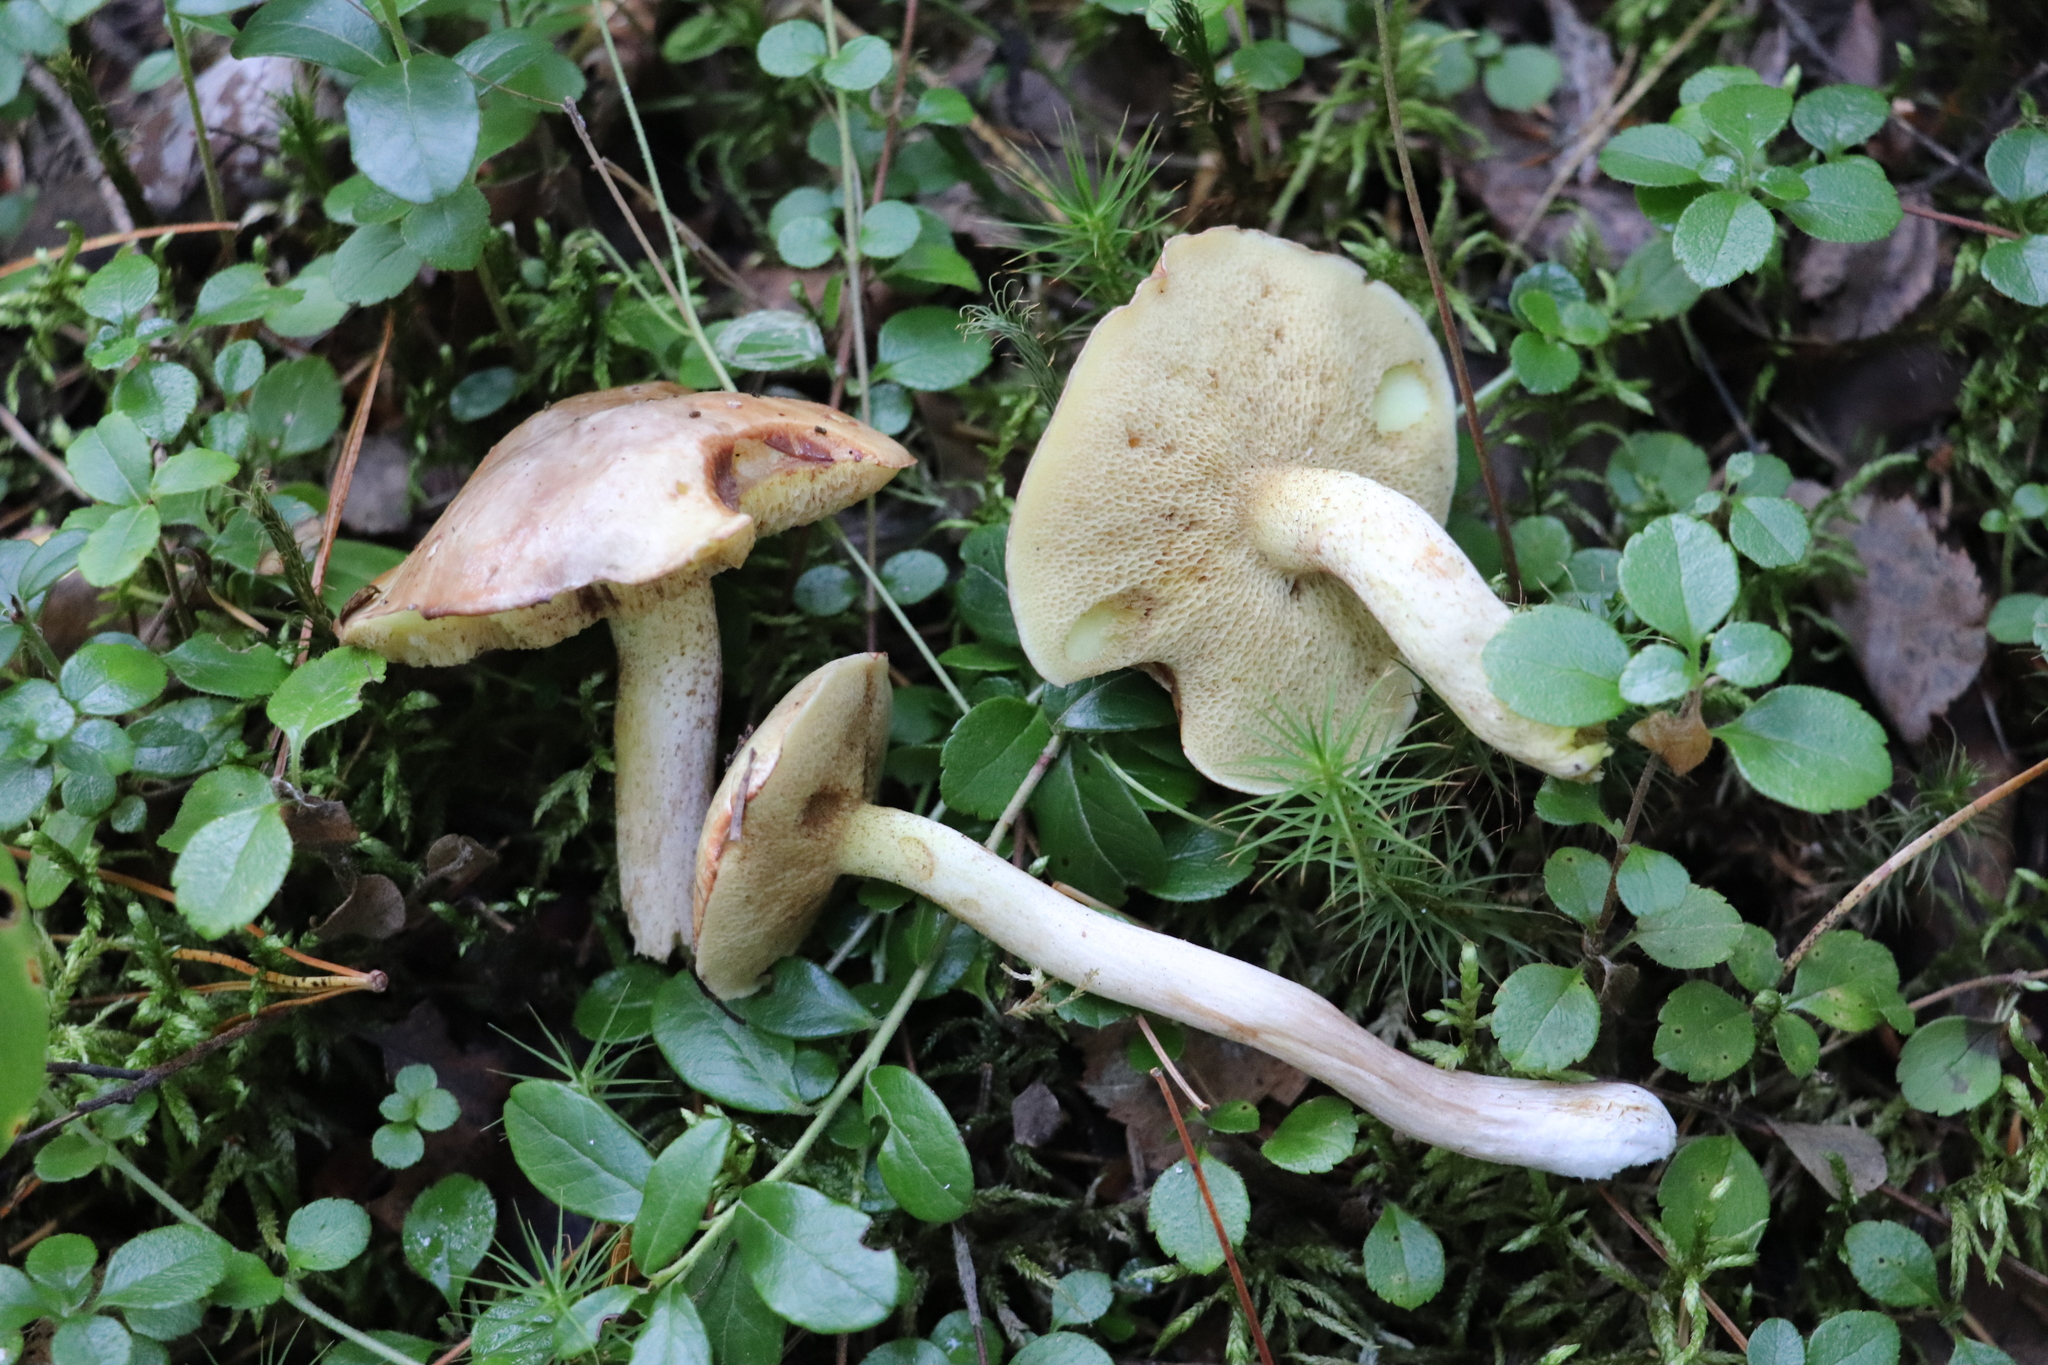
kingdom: Fungi
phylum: Basidiomycota
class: Agaricomycetes
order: Boletales
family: Suillaceae
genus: Suillus
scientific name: Suillus placidus
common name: Slippery white bolete
